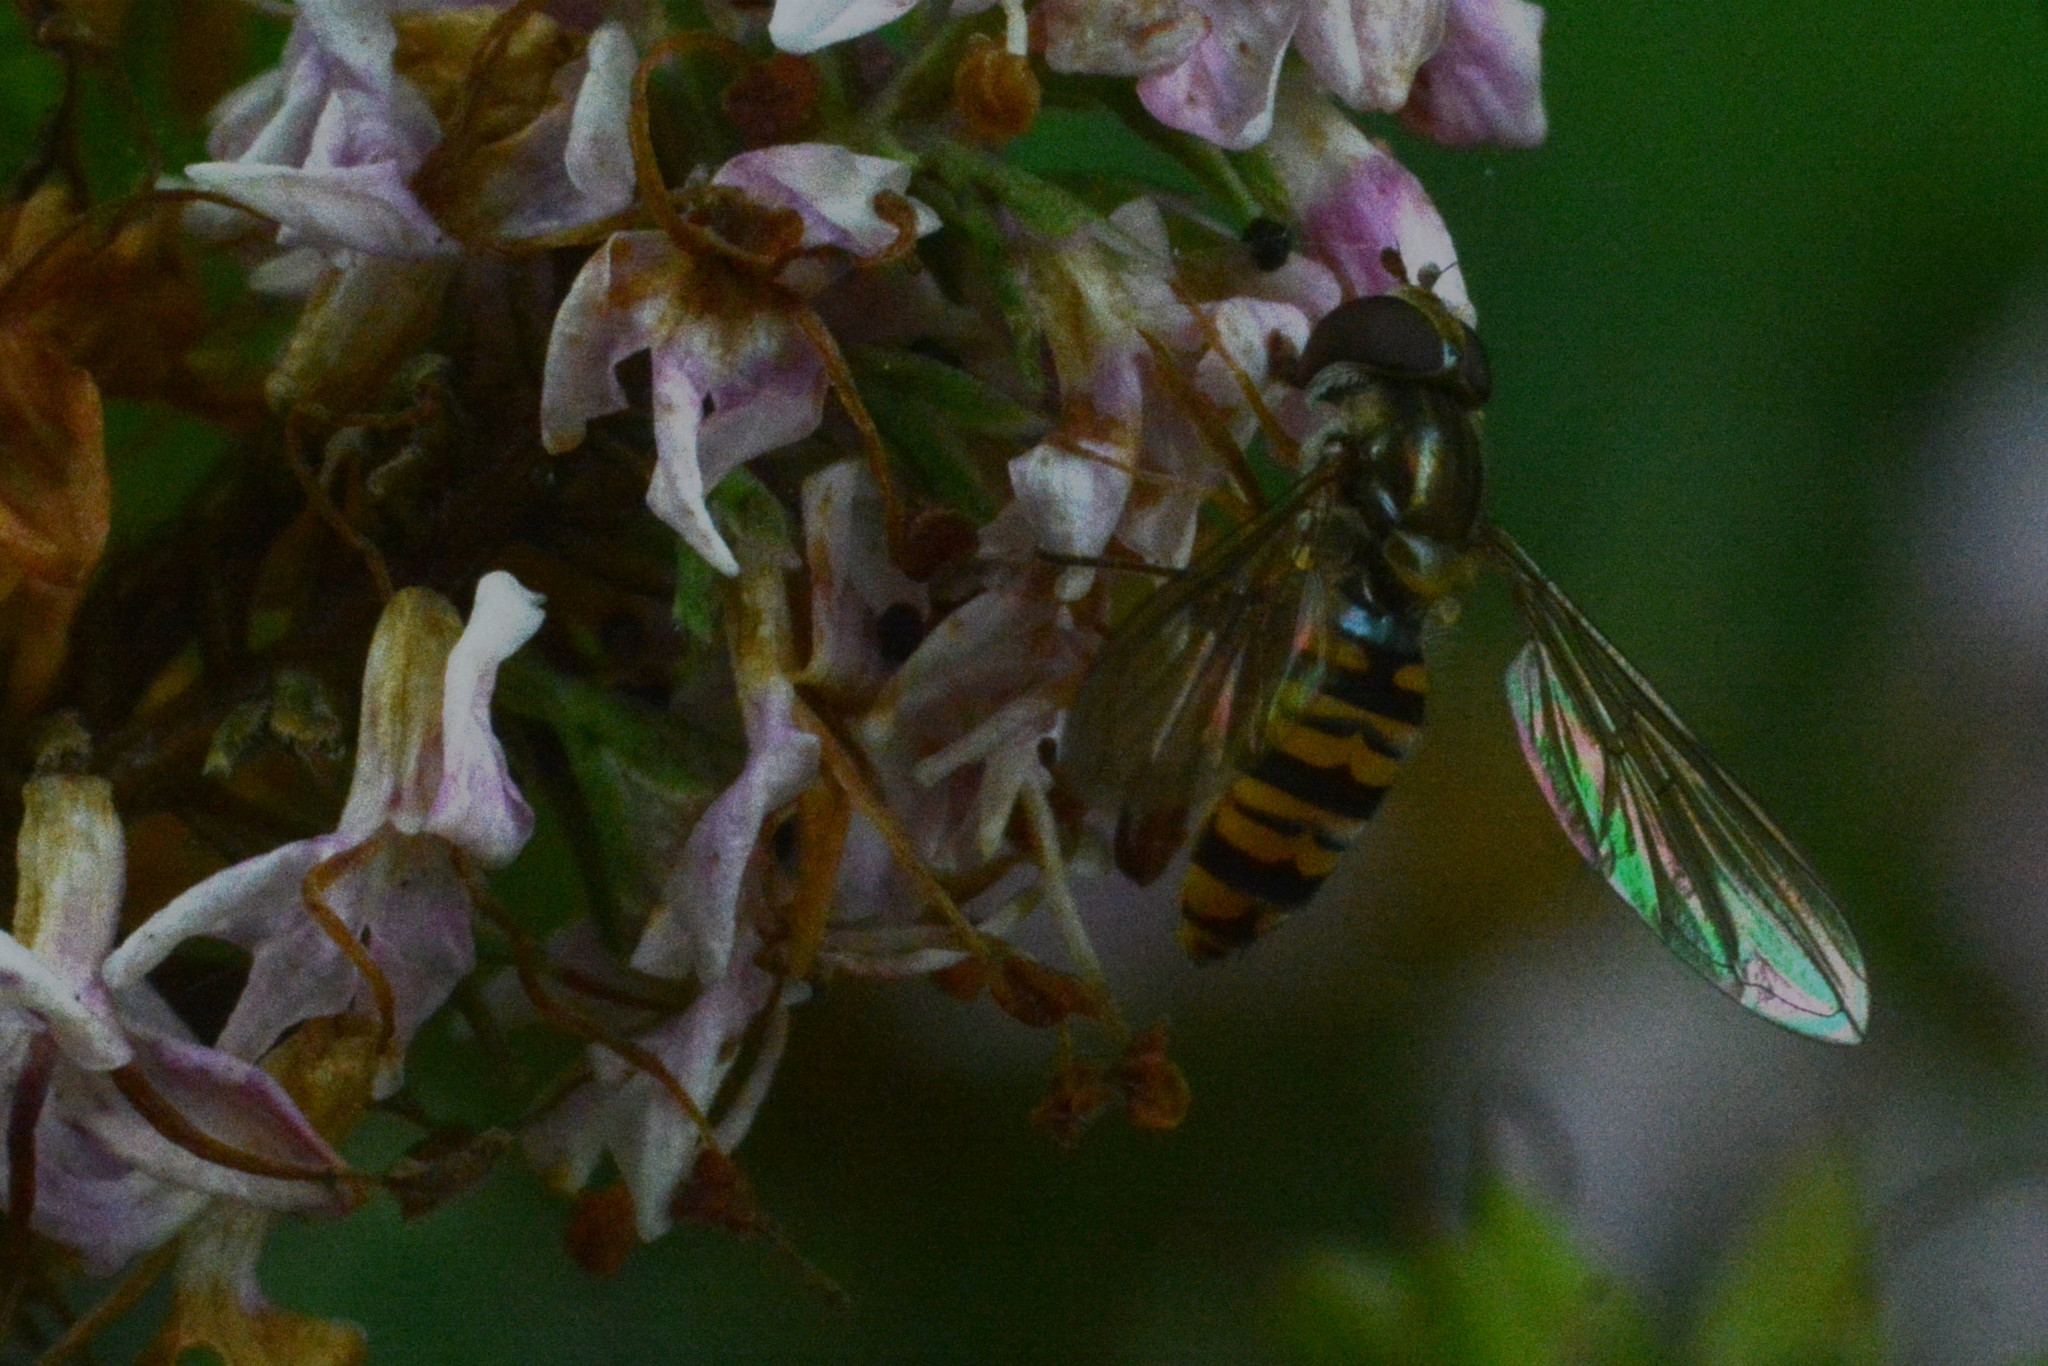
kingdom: Animalia
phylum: Arthropoda
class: Insecta
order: Diptera
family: Syrphidae
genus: Episyrphus
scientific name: Episyrphus balteatus
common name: Marmalade hoverfly
